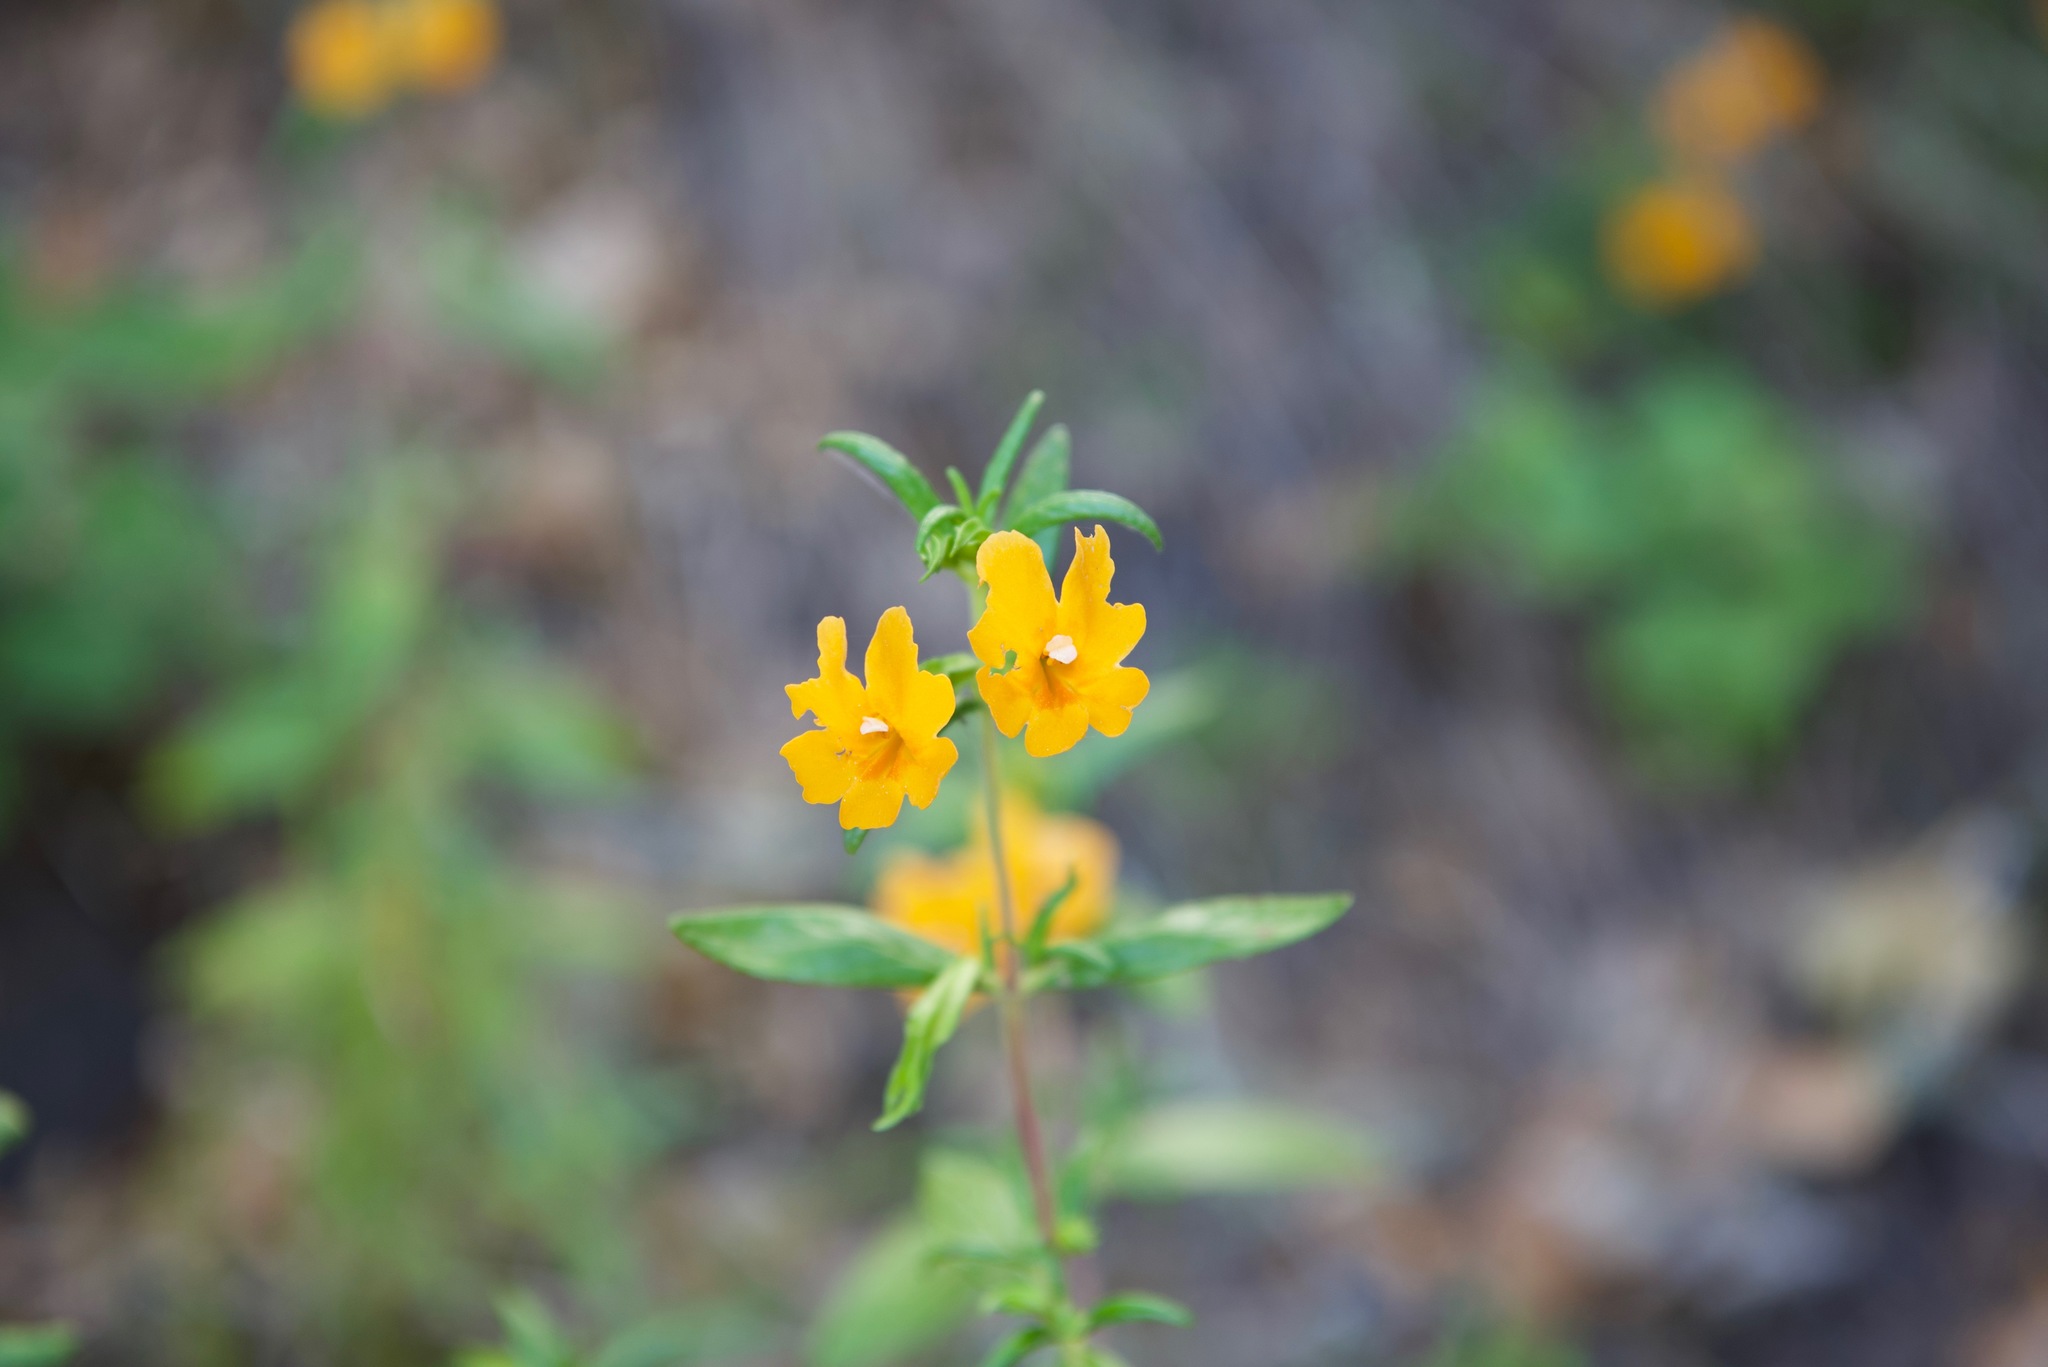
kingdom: Plantae
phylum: Tracheophyta
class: Magnoliopsida
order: Lamiales
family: Phrymaceae
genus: Diplacus
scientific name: Diplacus aurantiacus
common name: Bush monkey-flower
